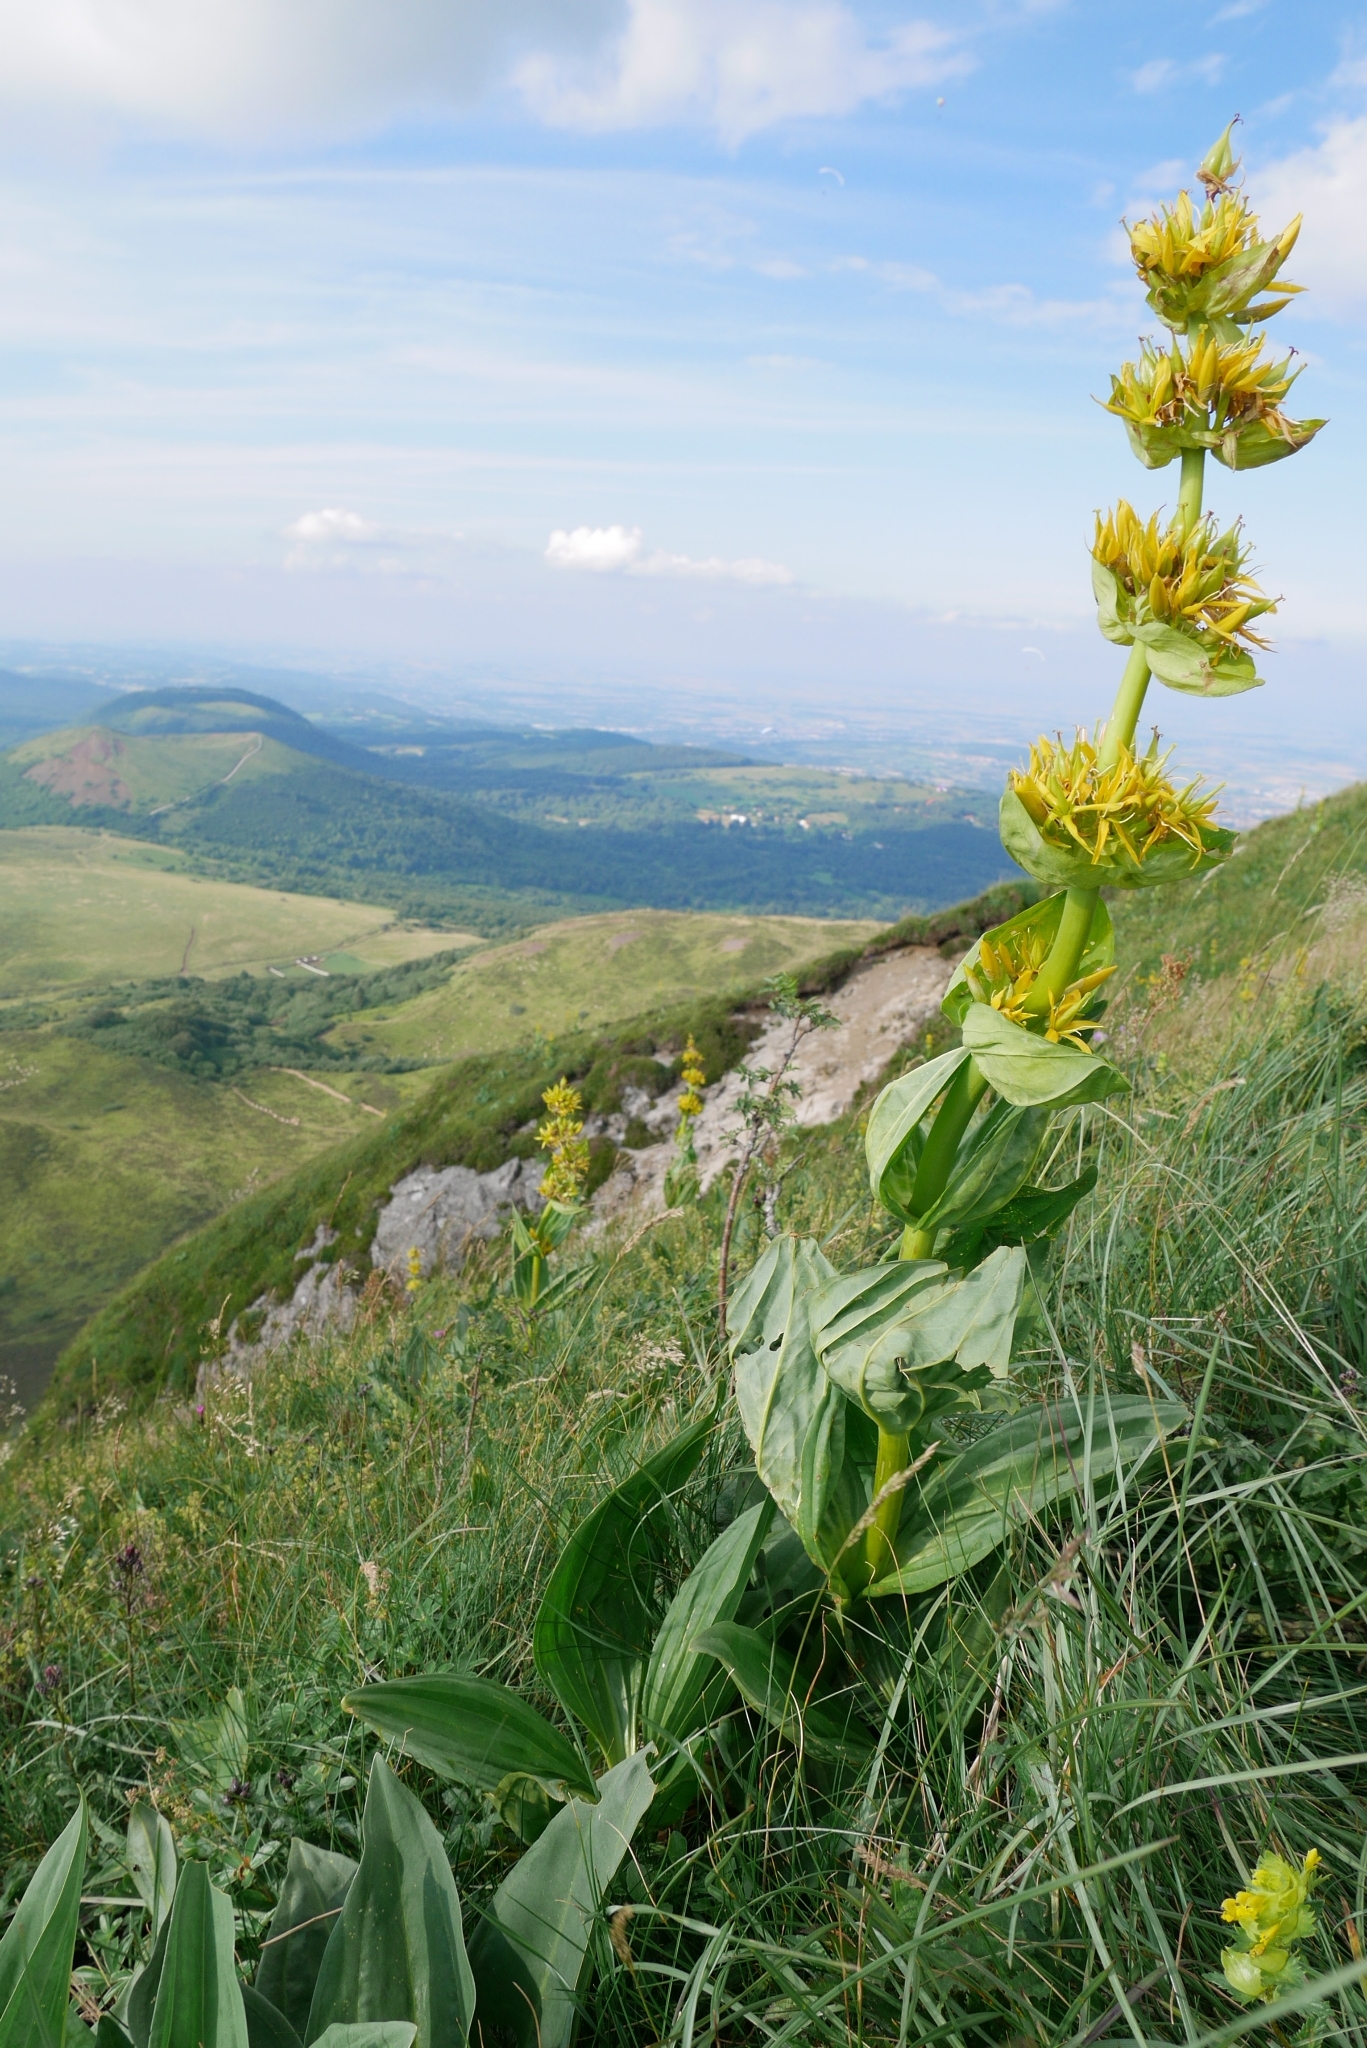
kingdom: Plantae
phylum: Tracheophyta
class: Magnoliopsida
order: Gentianales
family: Gentianaceae
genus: Gentiana
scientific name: Gentiana lutea
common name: Great yellow gentian
